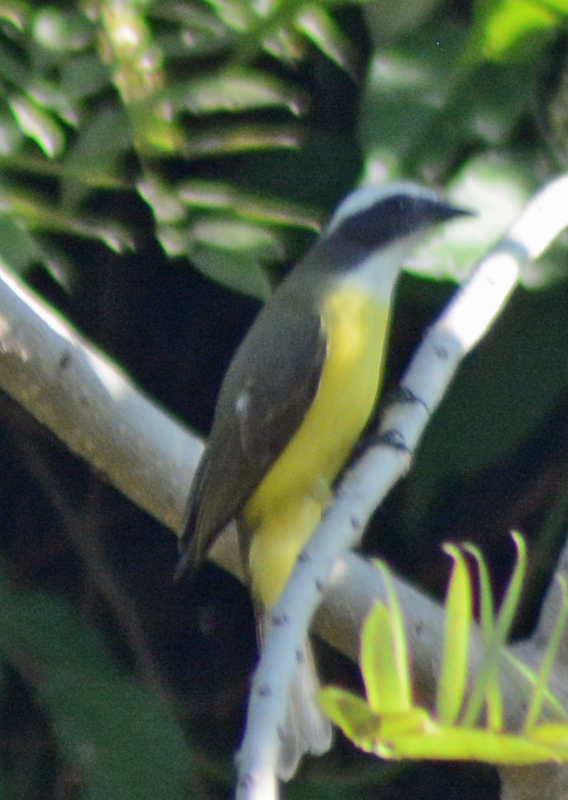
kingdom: Animalia
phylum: Chordata
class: Aves
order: Passeriformes
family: Tyrannidae
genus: Myiozetetes
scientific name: Myiozetetes similis
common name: Social flycatcher
